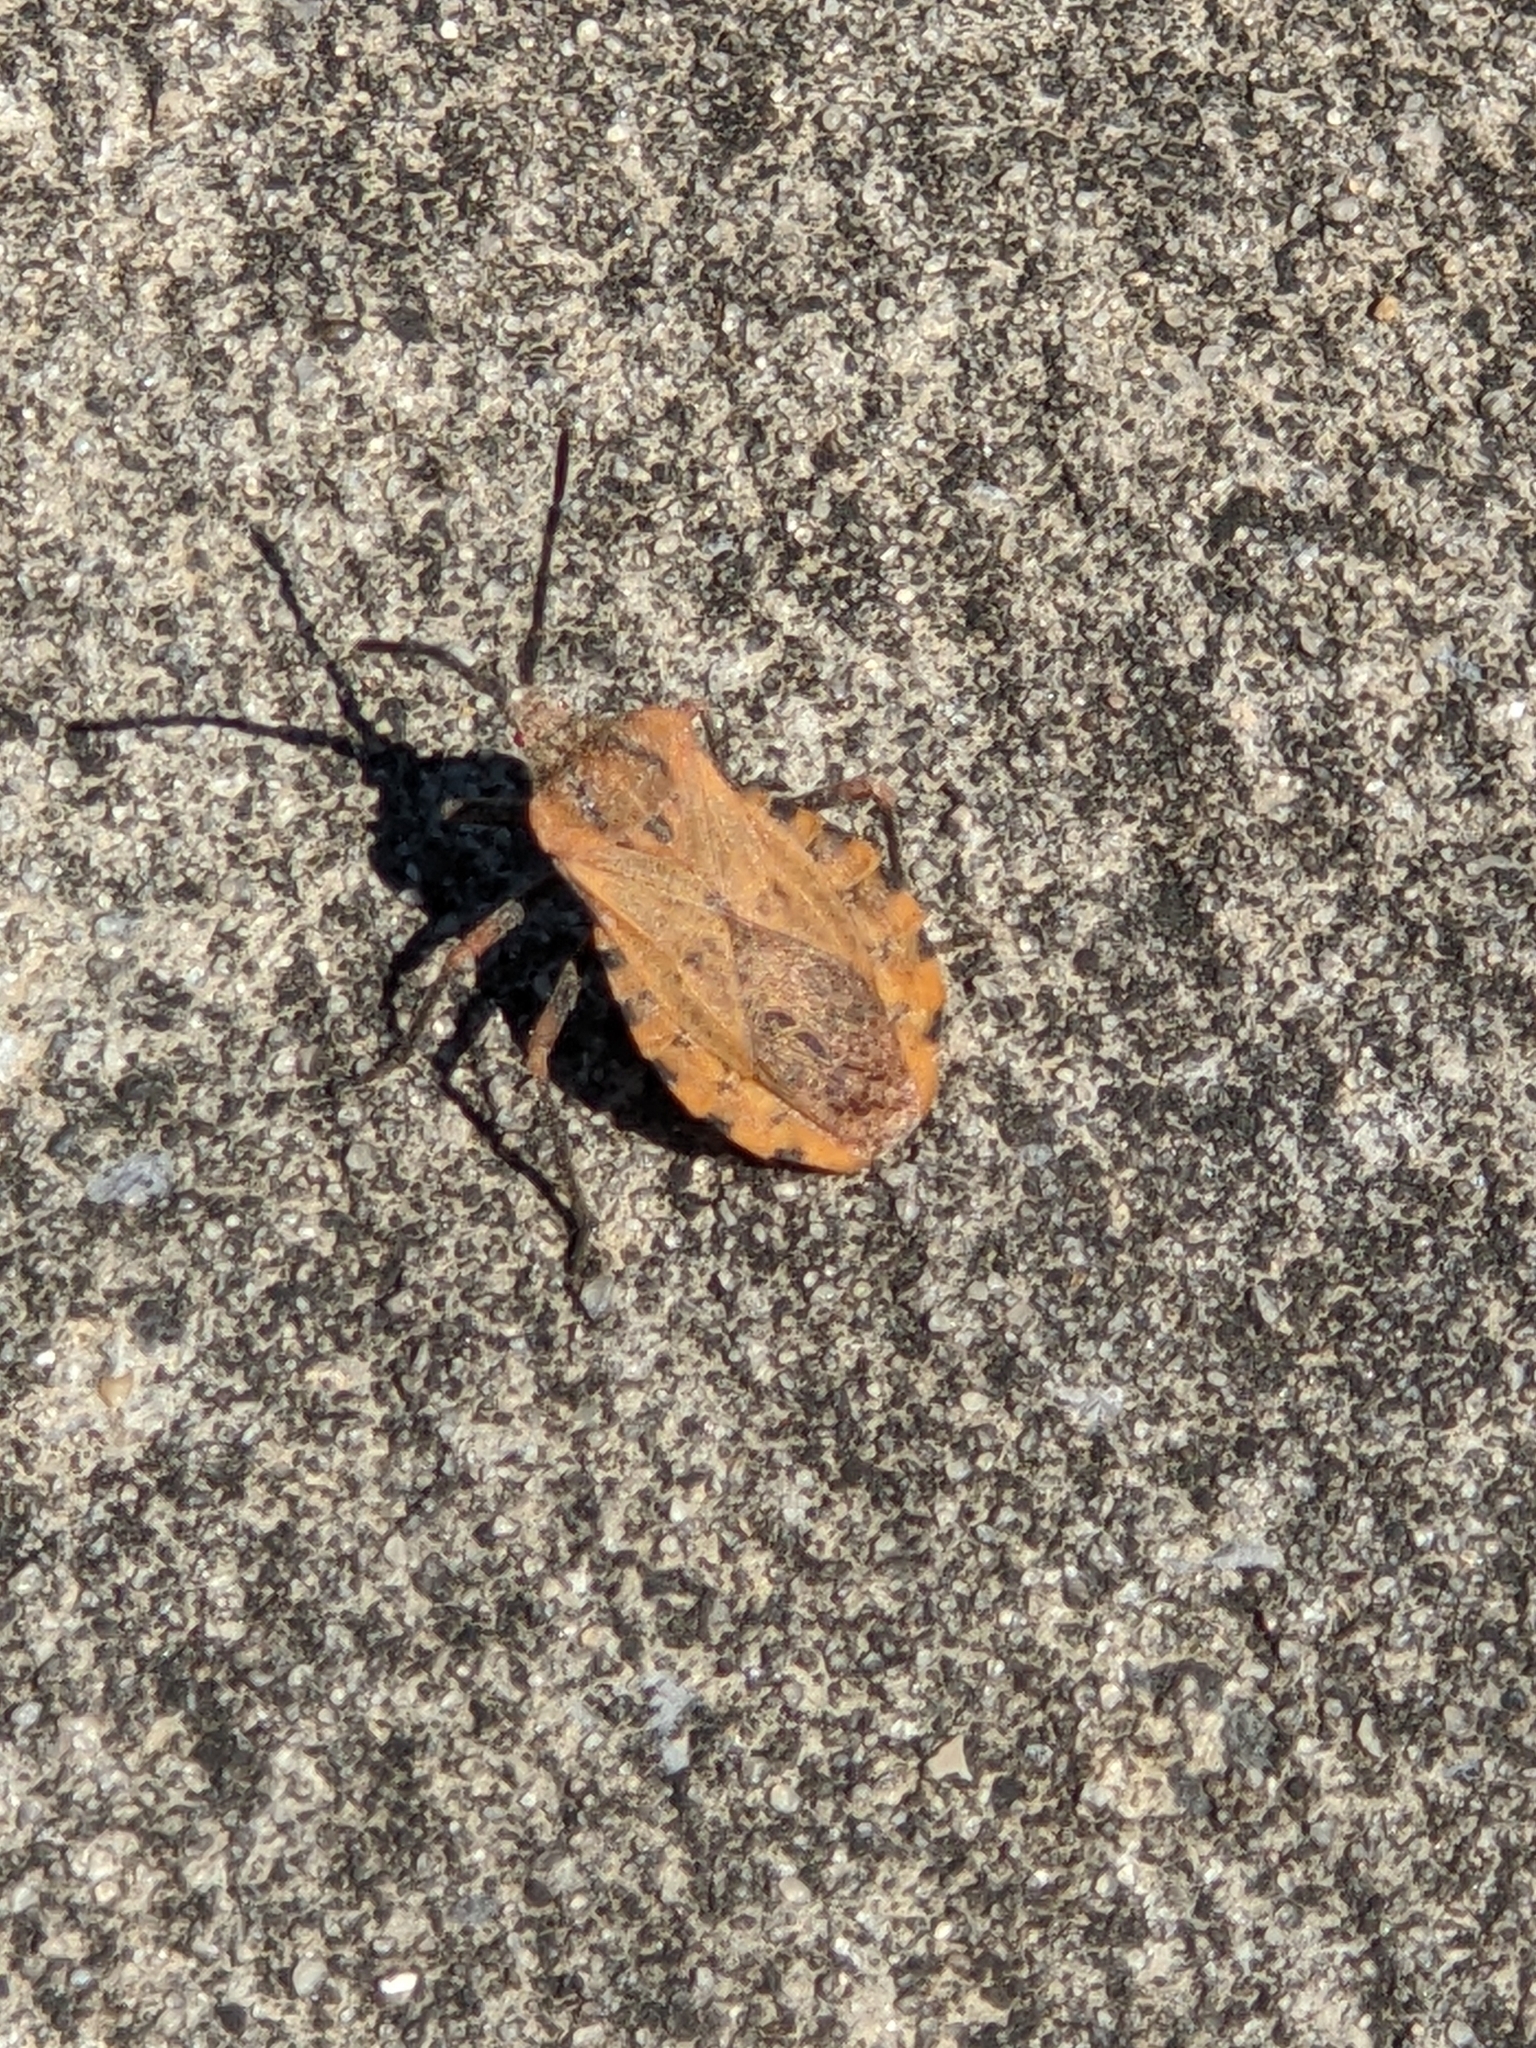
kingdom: Animalia
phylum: Arthropoda
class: Insecta
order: Hemiptera
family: Coreidae
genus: Spartocera
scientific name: Spartocera fusca
